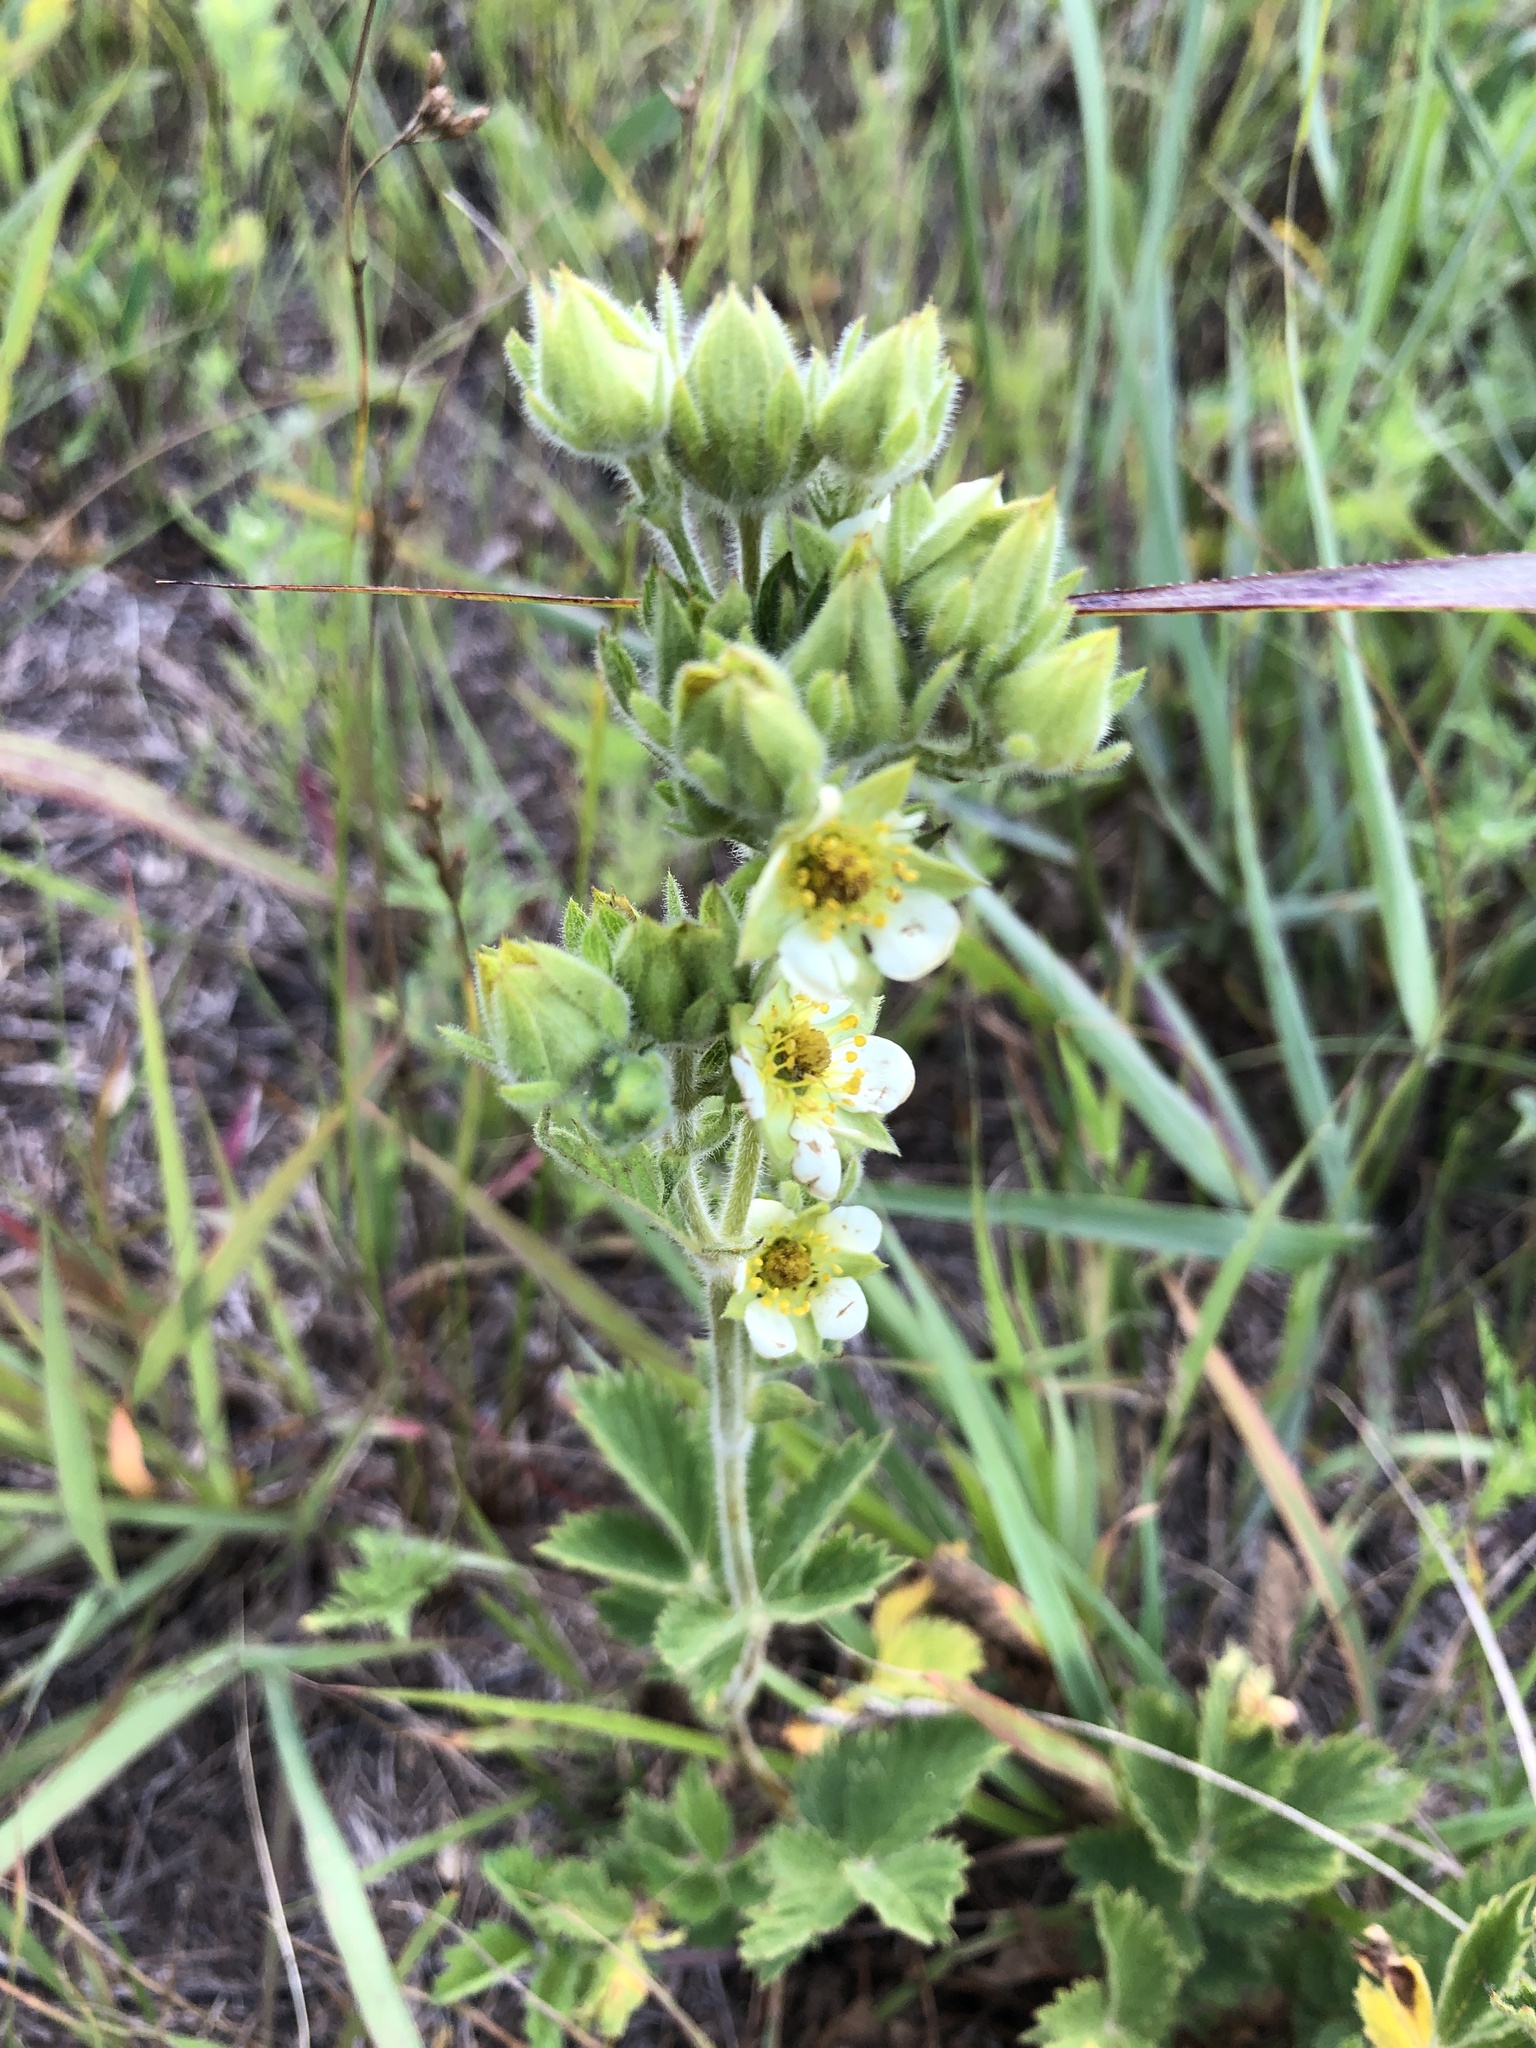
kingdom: Plantae
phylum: Tracheophyta
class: Magnoliopsida
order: Rosales
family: Rosaceae
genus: Drymocallis
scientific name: Drymocallis arguta
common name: Tall cinquefoil
